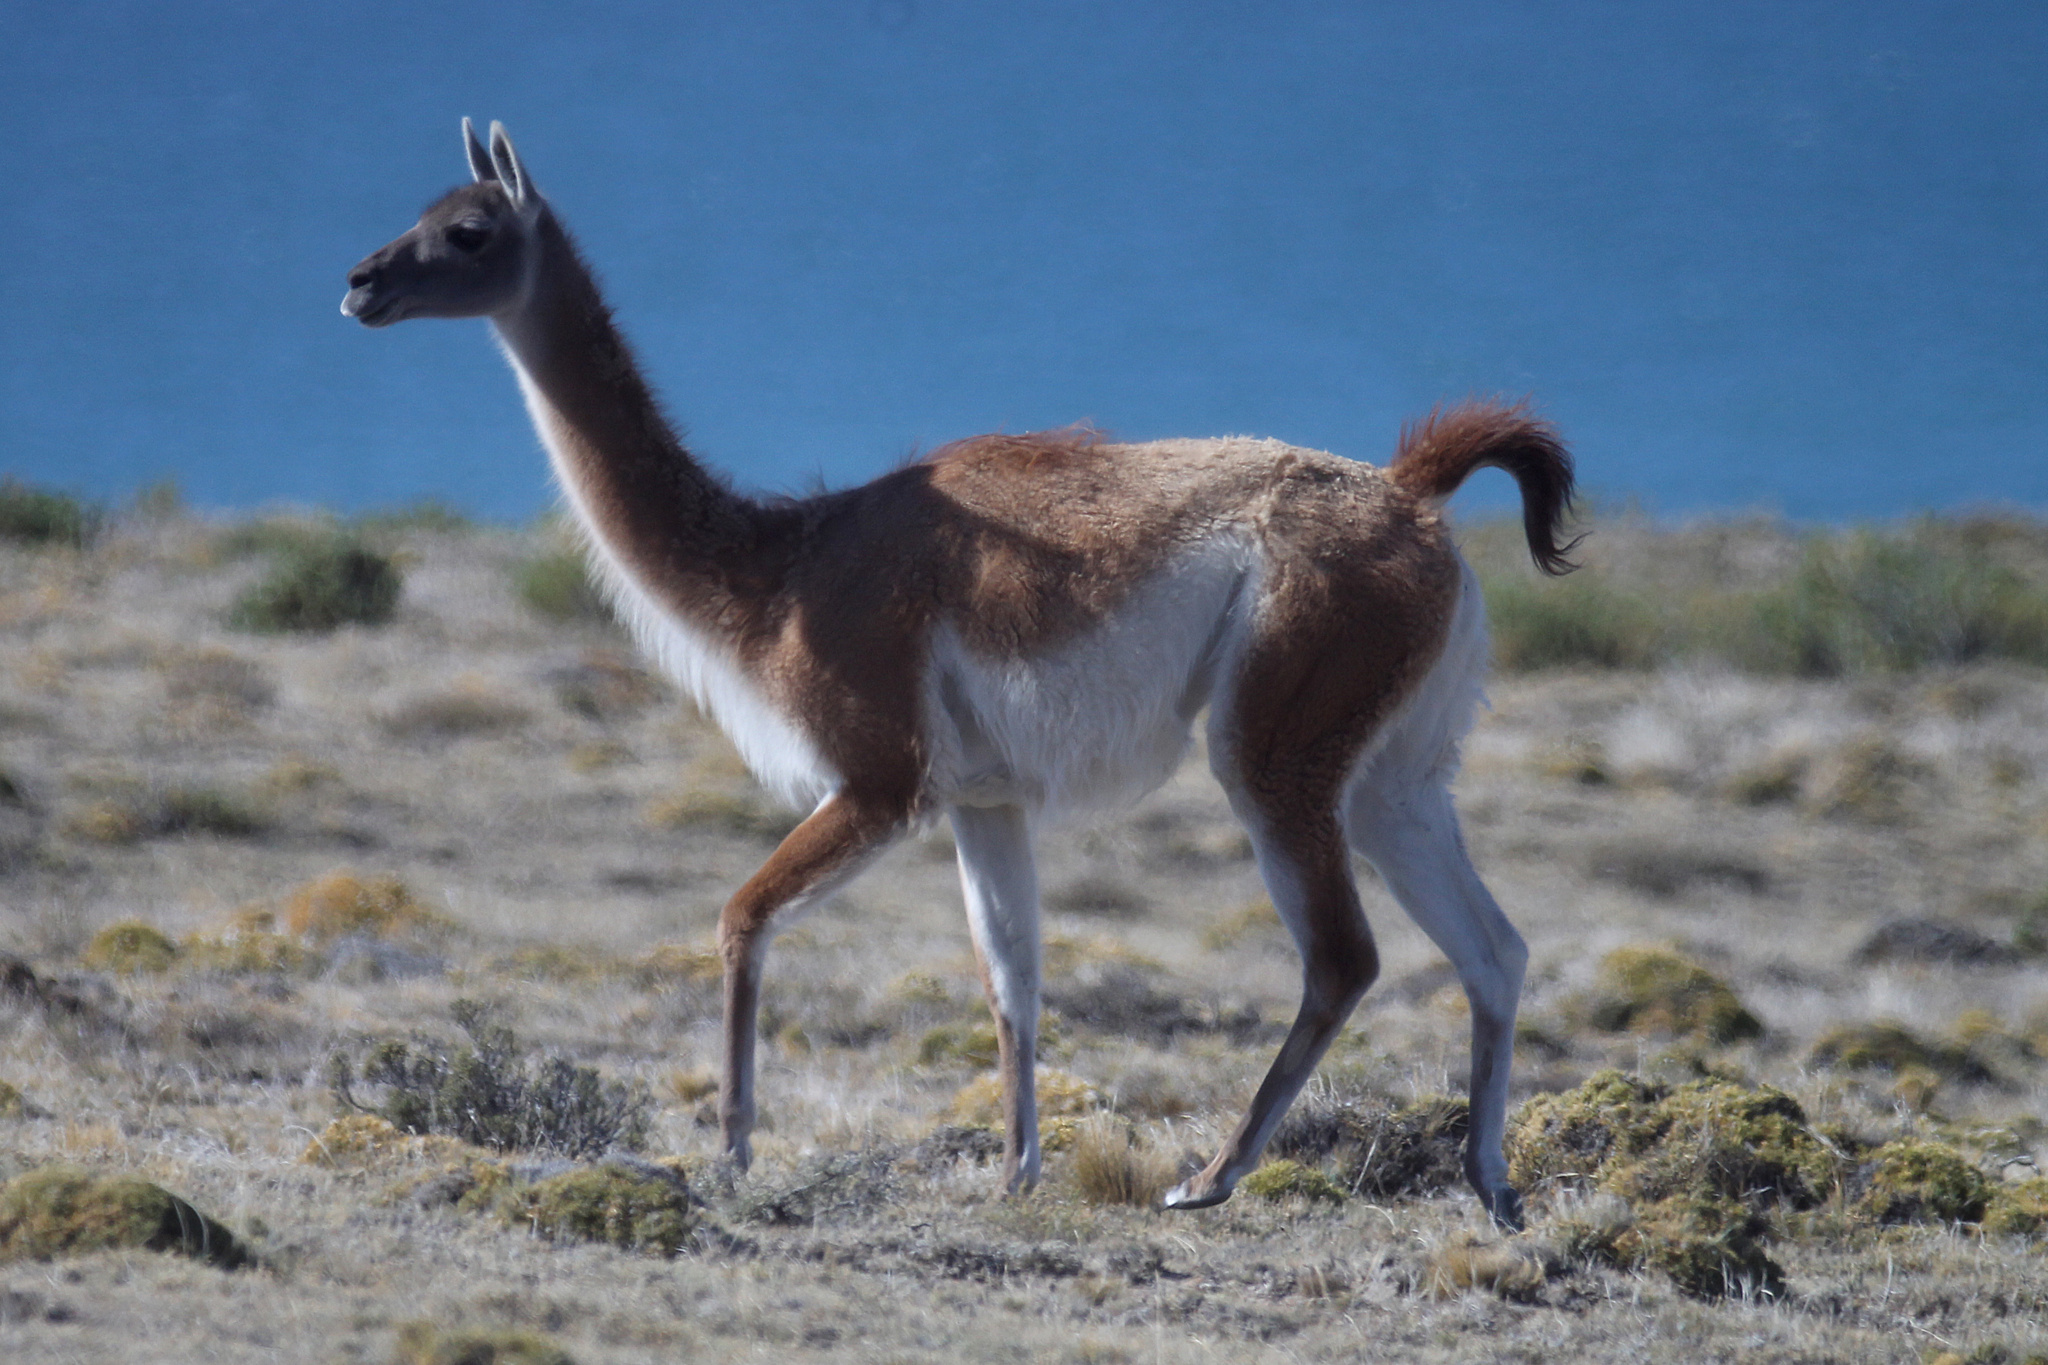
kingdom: Animalia
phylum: Chordata
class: Mammalia
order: Artiodactyla
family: Camelidae
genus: Lama
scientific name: Lama glama
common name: Llama
